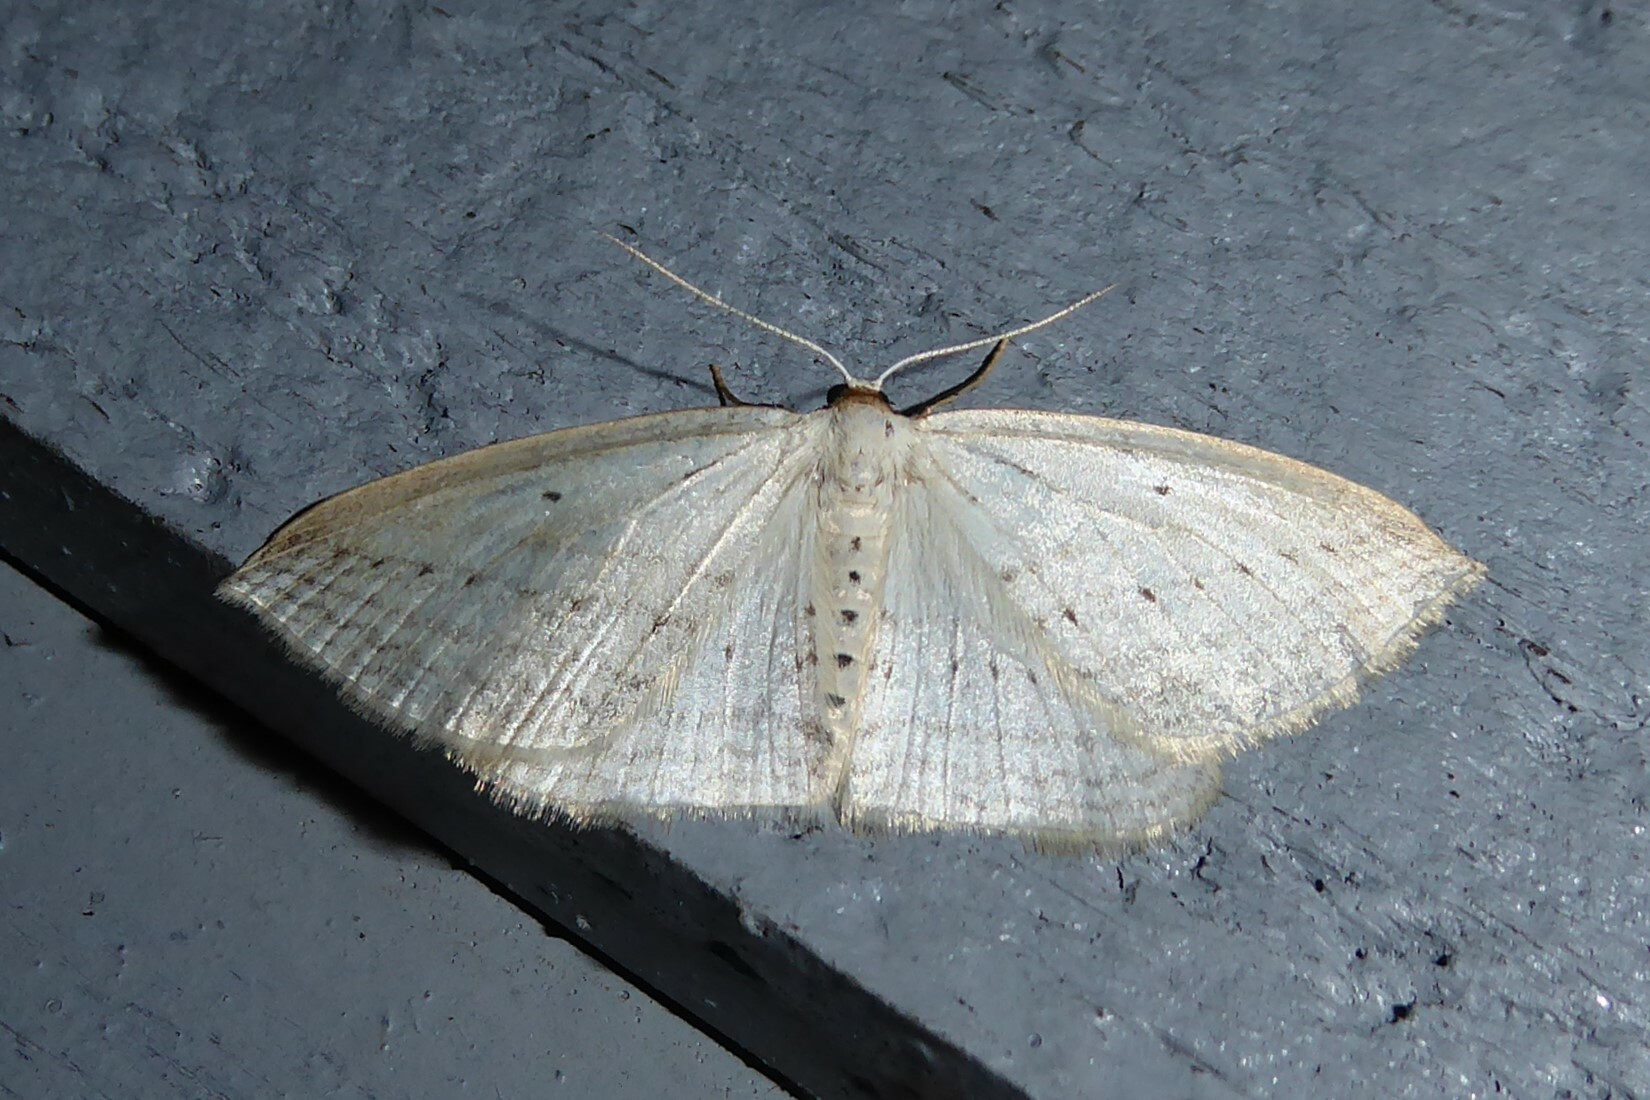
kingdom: Animalia
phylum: Arthropoda
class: Insecta
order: Lepidoptera
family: Geometridae
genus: Orthoclydon
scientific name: Orthoclydon praefectata
